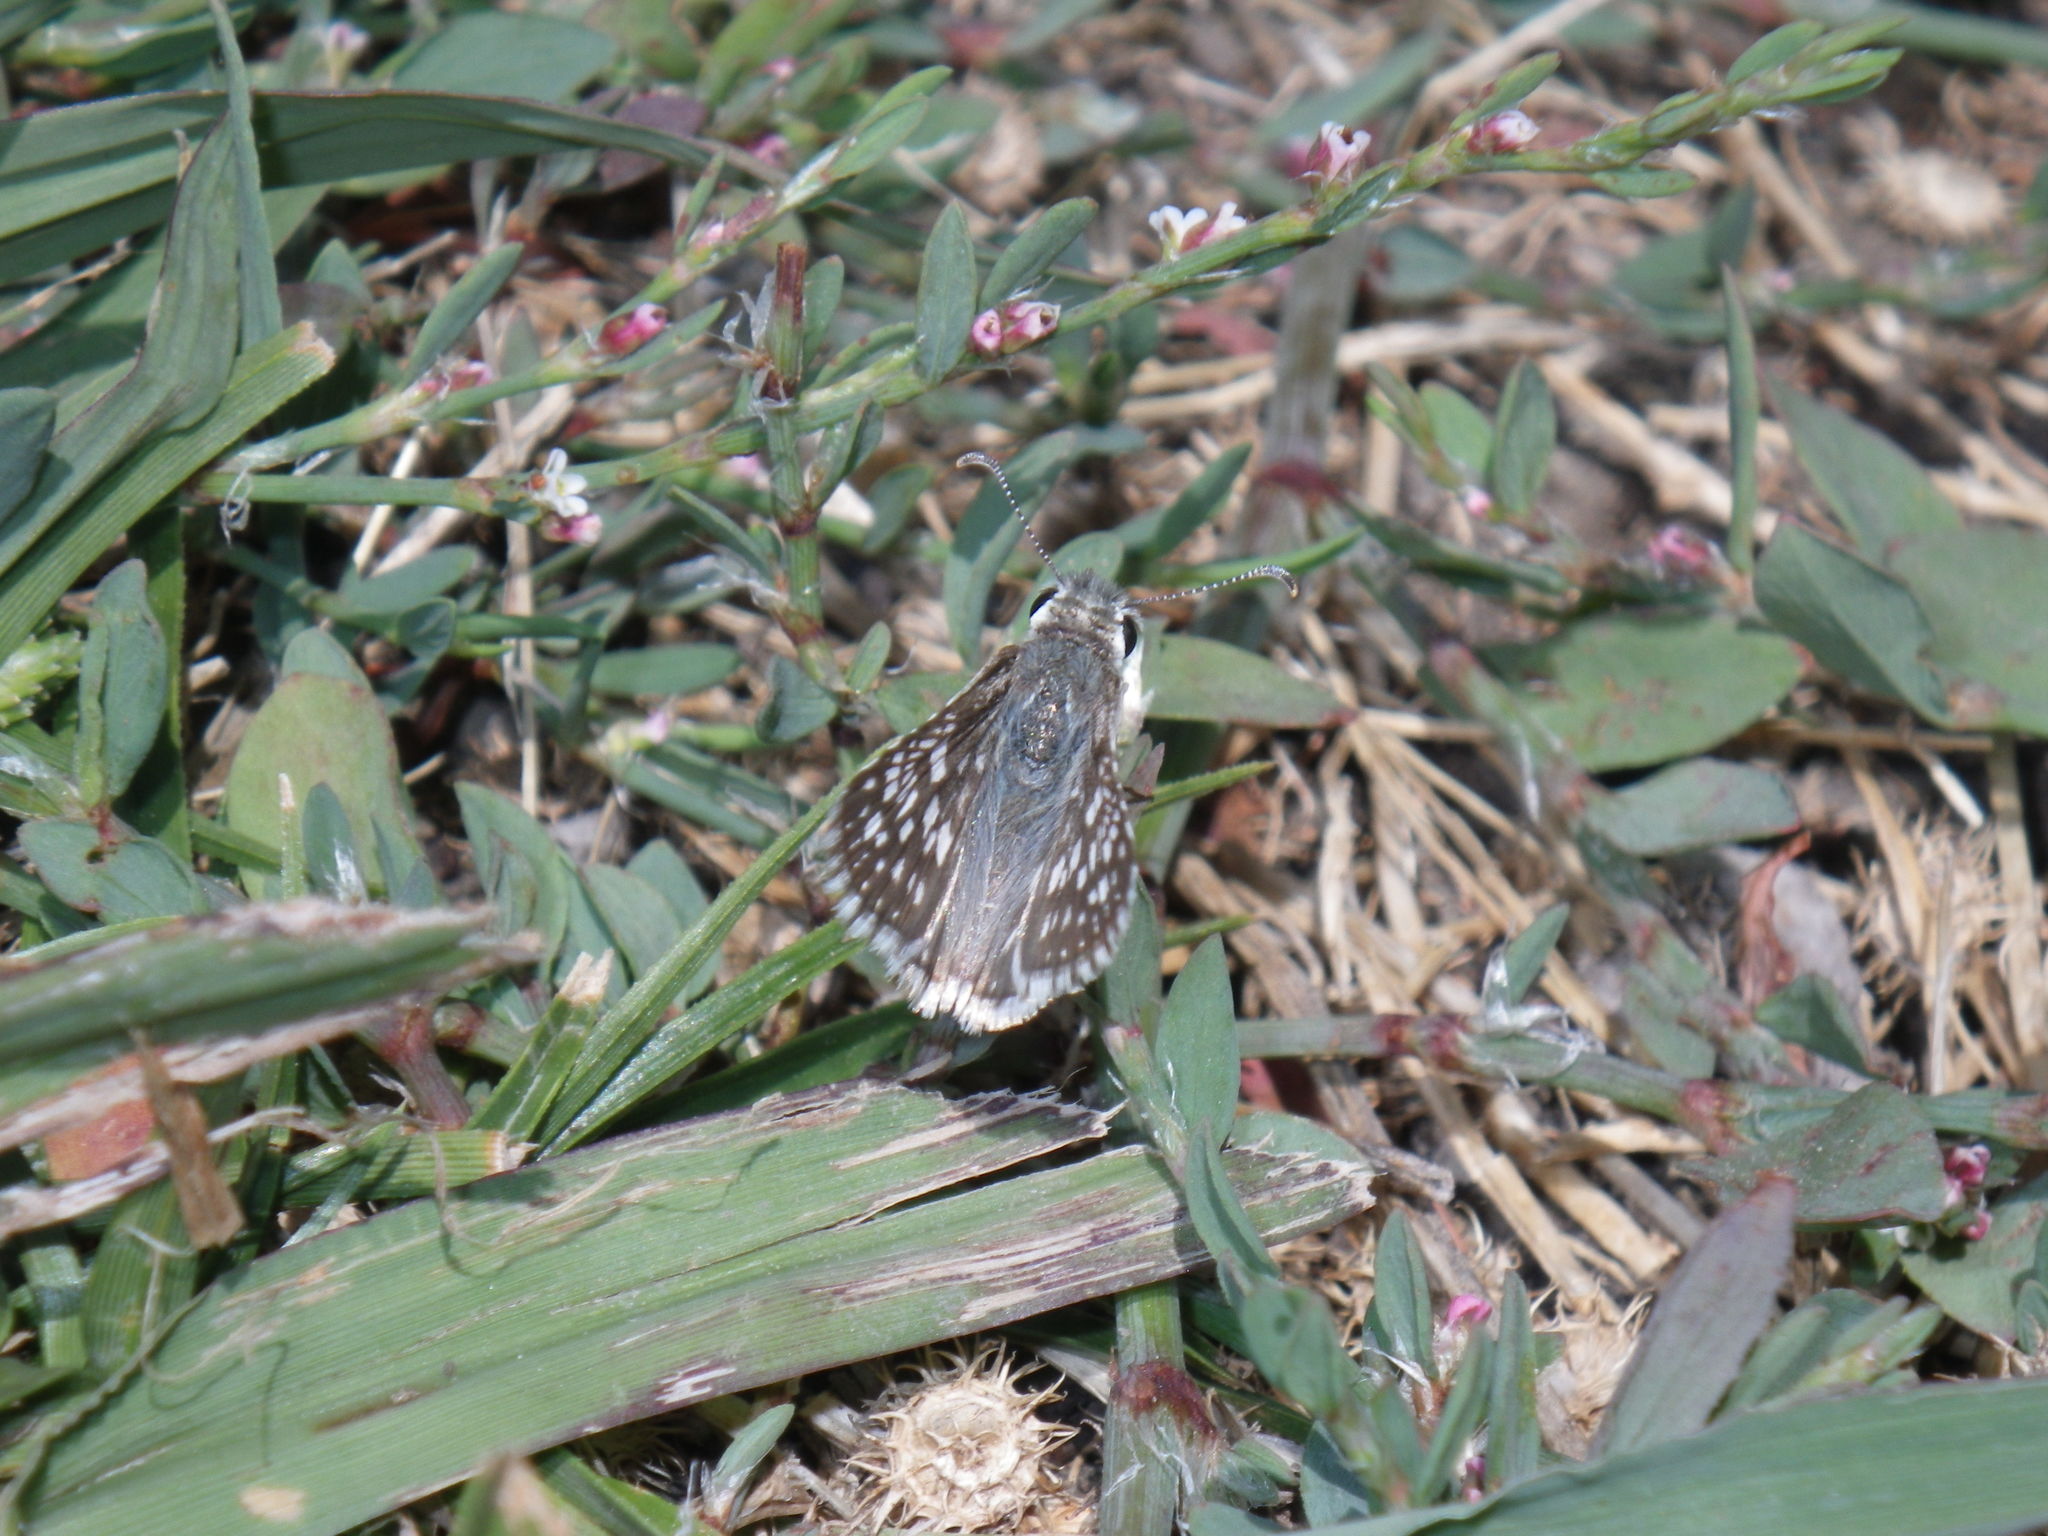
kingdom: Animalia
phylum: Arthropoda
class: Insecta
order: Lepidoptera
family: Hesperiidae
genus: Burnsius
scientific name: Burnsius communis
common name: Common checkered-skipper
